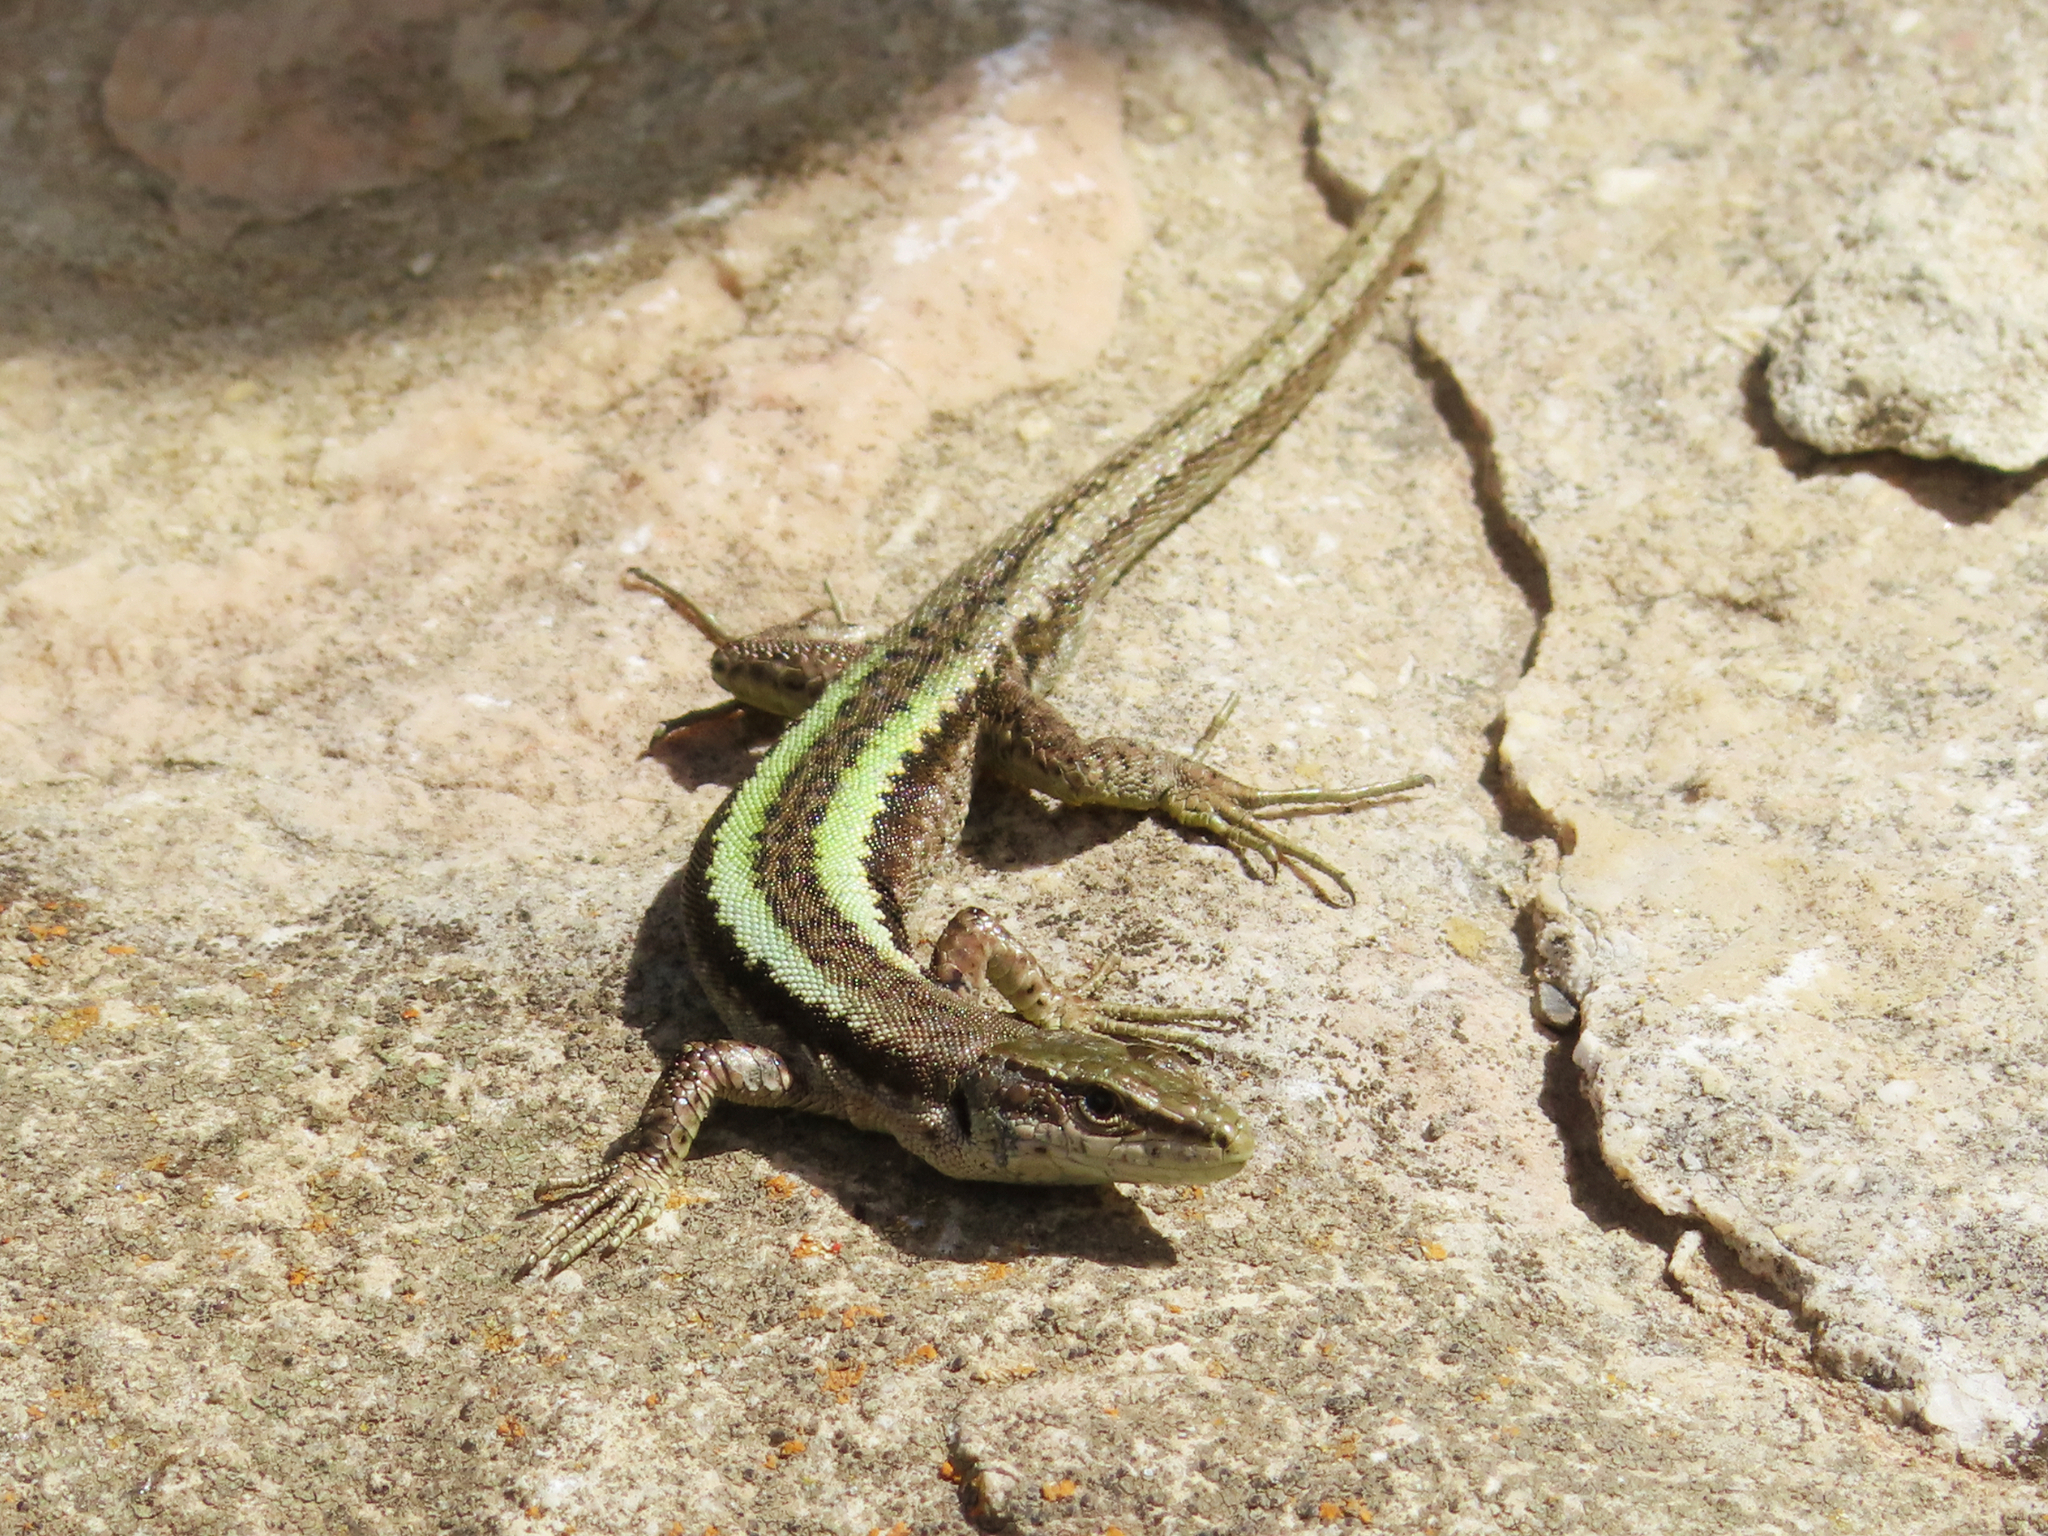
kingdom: Animalia
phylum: Chordata
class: Squamata
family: Lacertidae
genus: Darevskia
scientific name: Darevskia daghestanica
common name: Dagestan lizard
